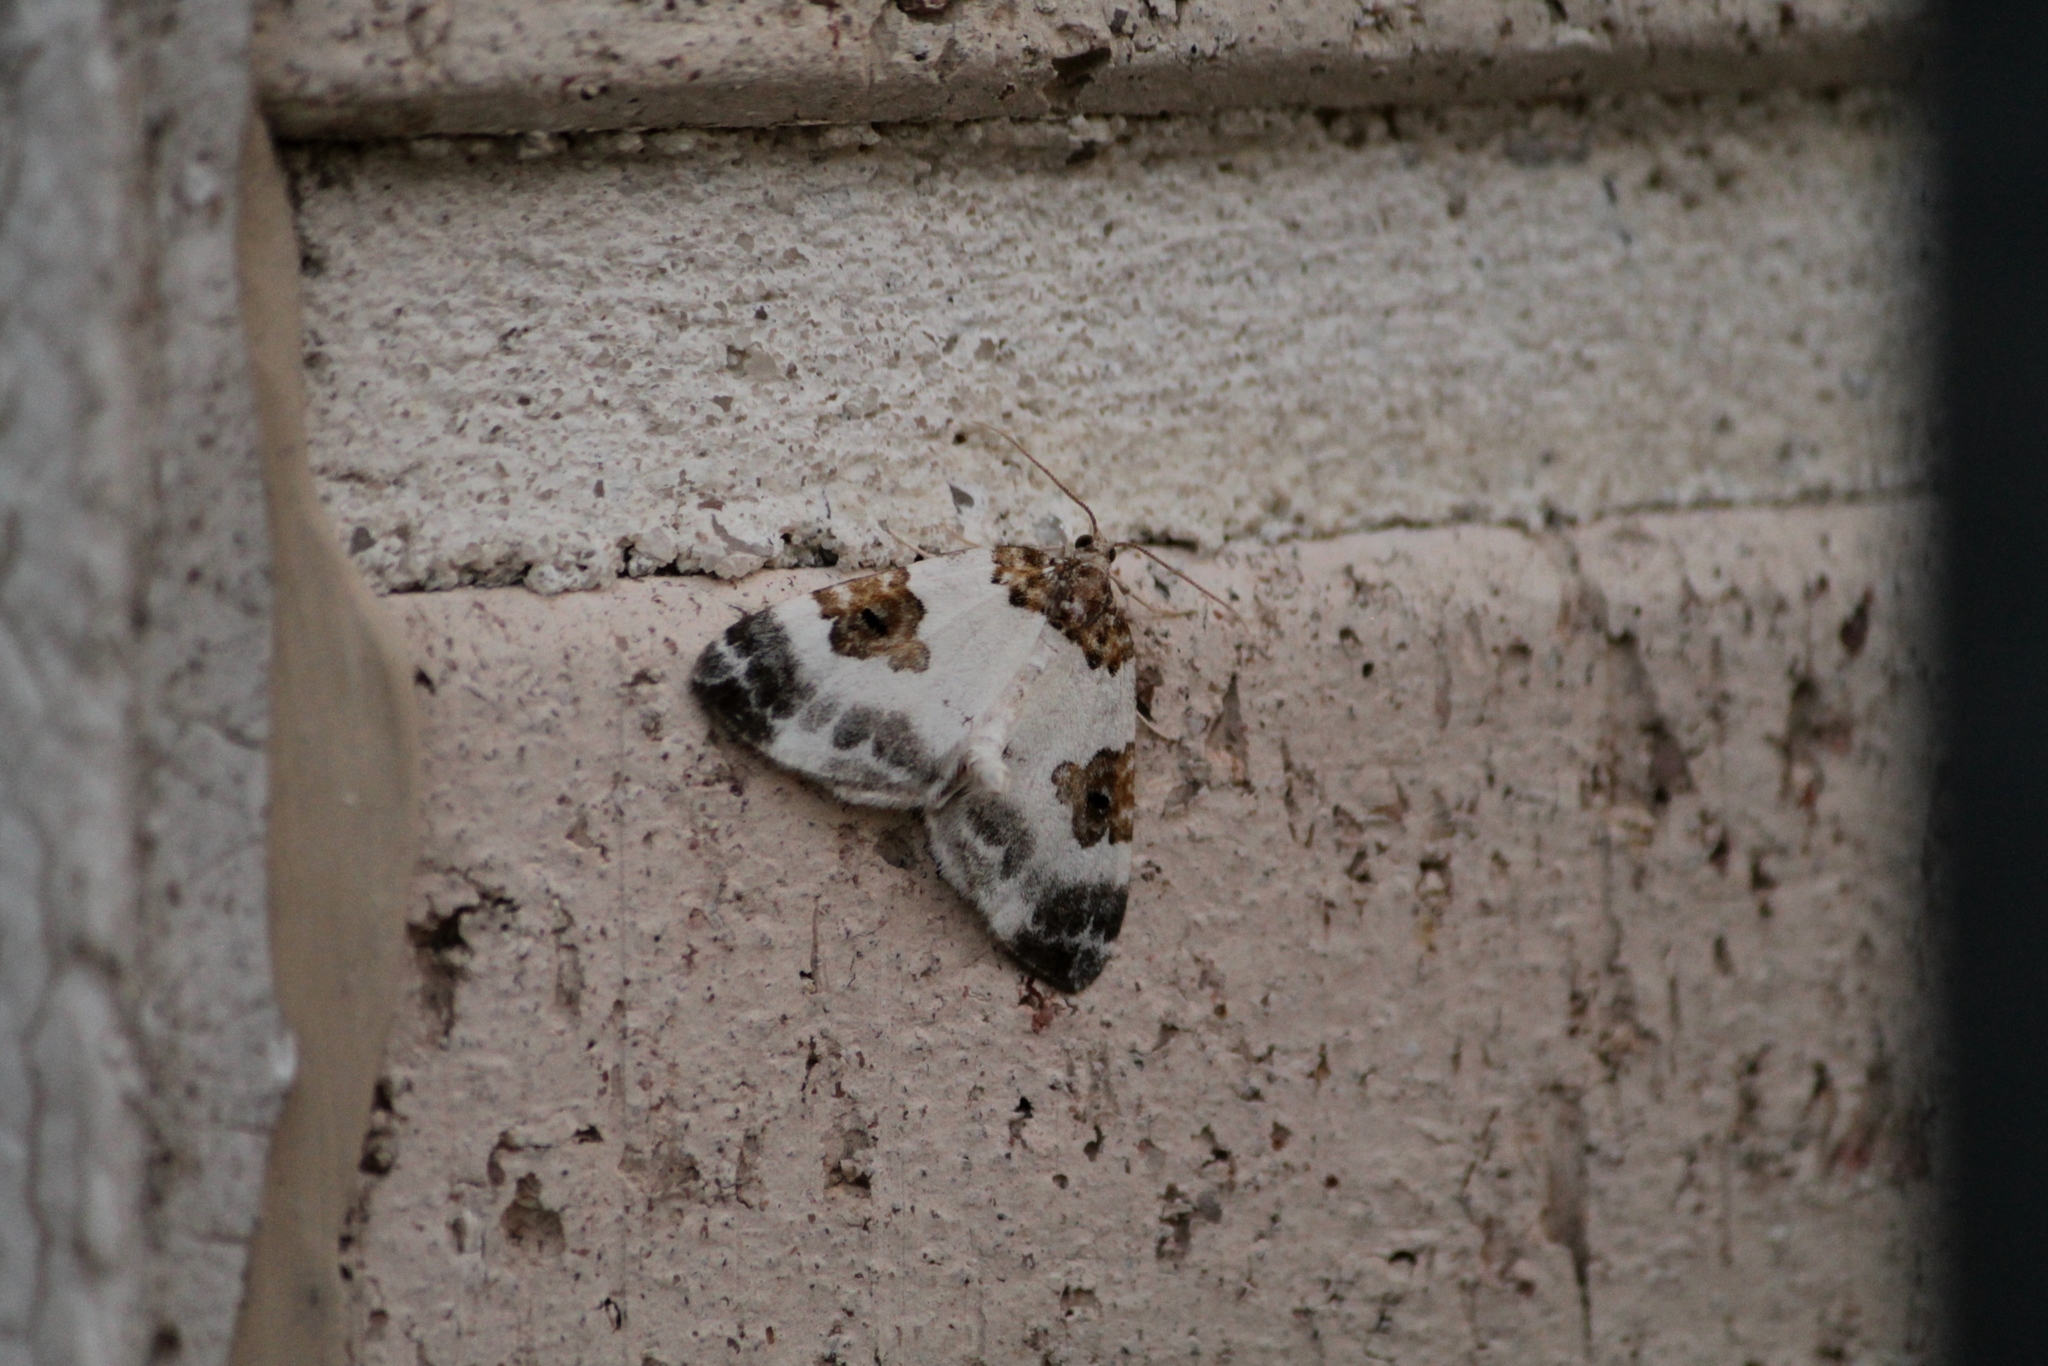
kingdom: Animalia
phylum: Arthropoda
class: Insecta
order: Lepidoptera
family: Geometridae
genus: Plemyria
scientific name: Plemyria rubiginata
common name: Blue-bordered carpet
